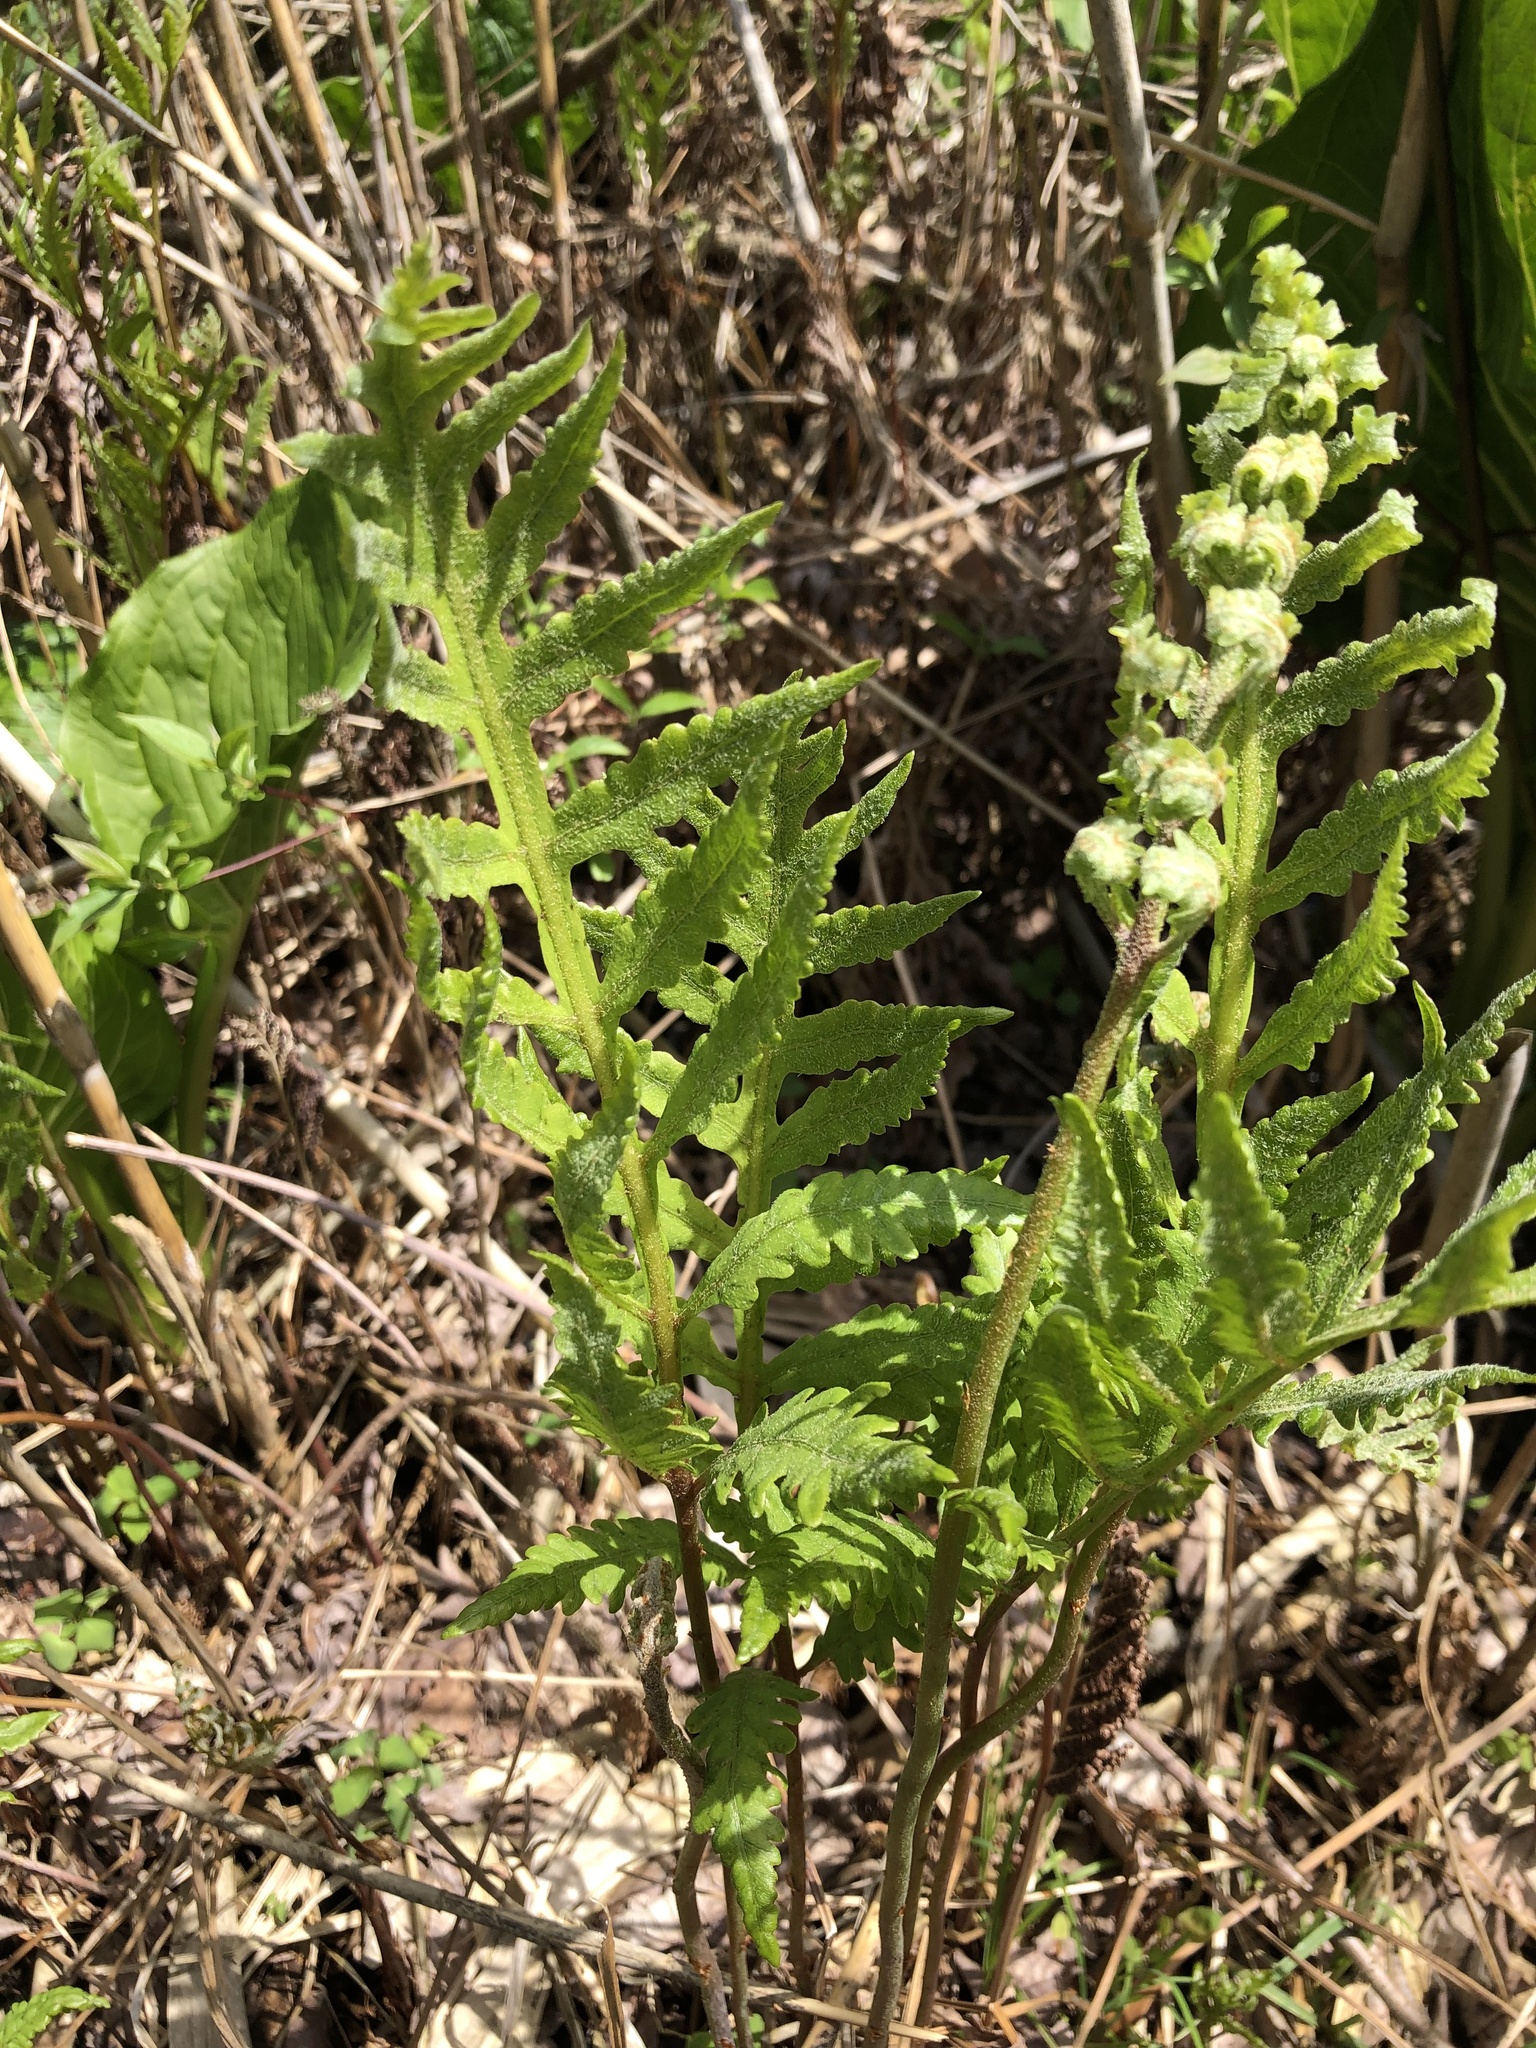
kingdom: Plantae
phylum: Tracheophyta
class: Polypodiopsida
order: Polypodiales
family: Onocleaceae
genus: Onoclea
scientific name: Onoclea sensibilis
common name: Sensitive fern
